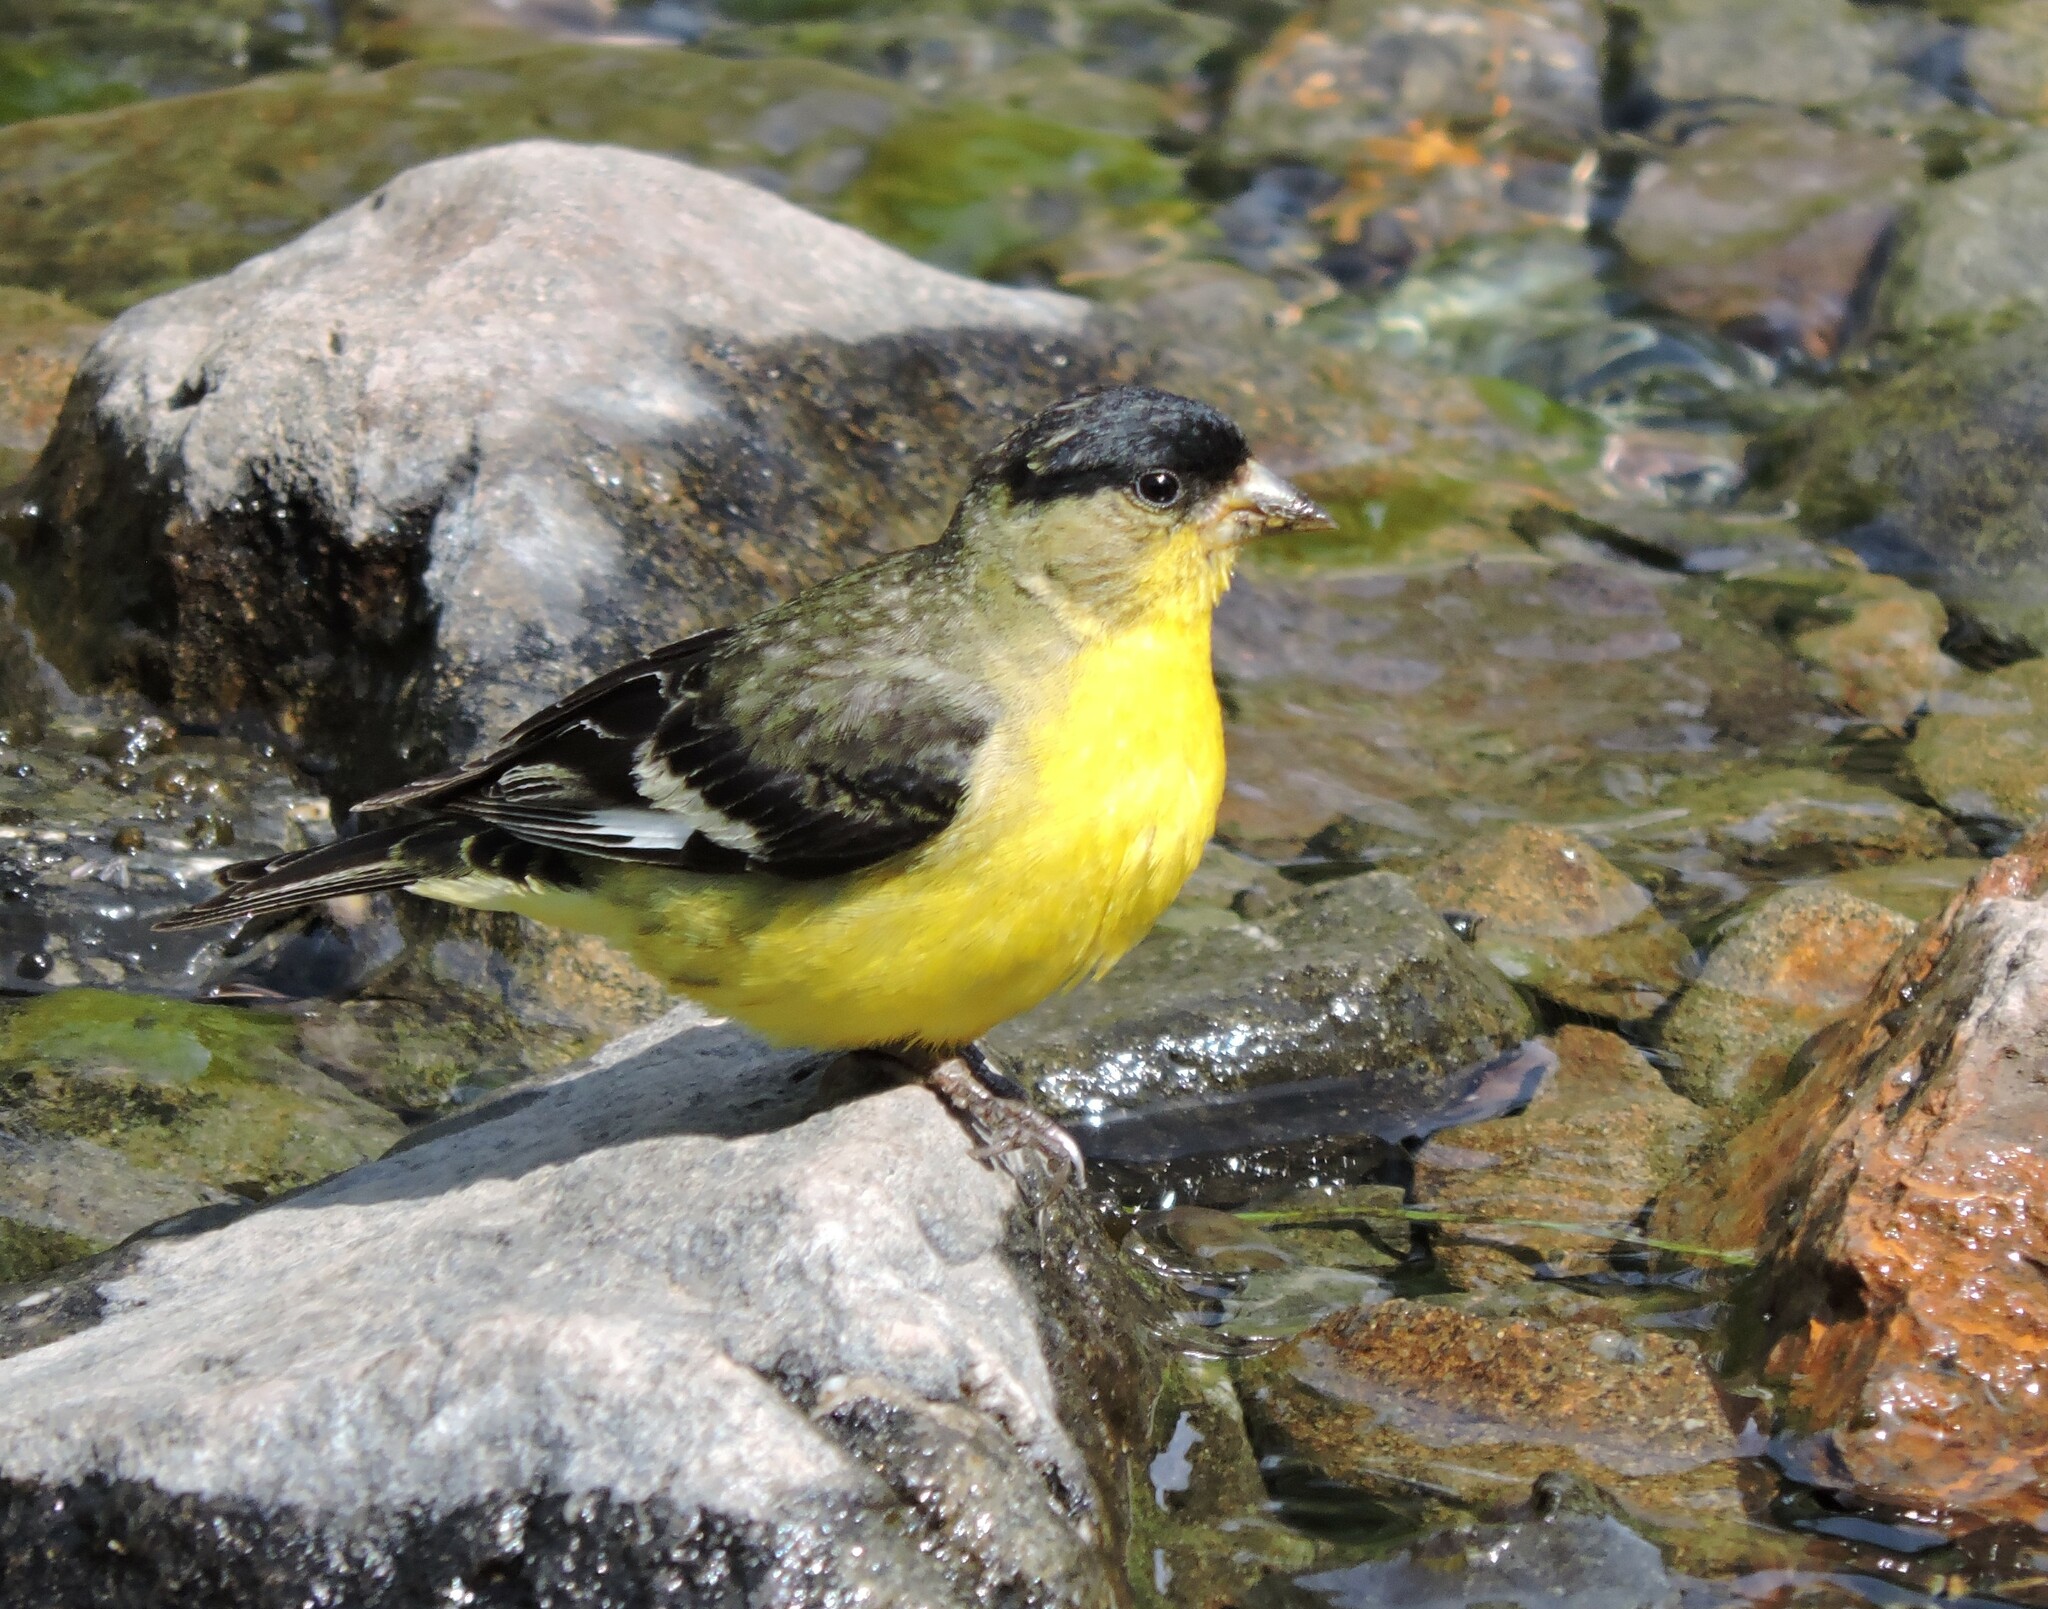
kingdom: Animalia
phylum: Chordata
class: Aves
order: Passeriformes
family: Fringillidae
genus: Spinus
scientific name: Spinus psaltria
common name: Lesser goldfinch
